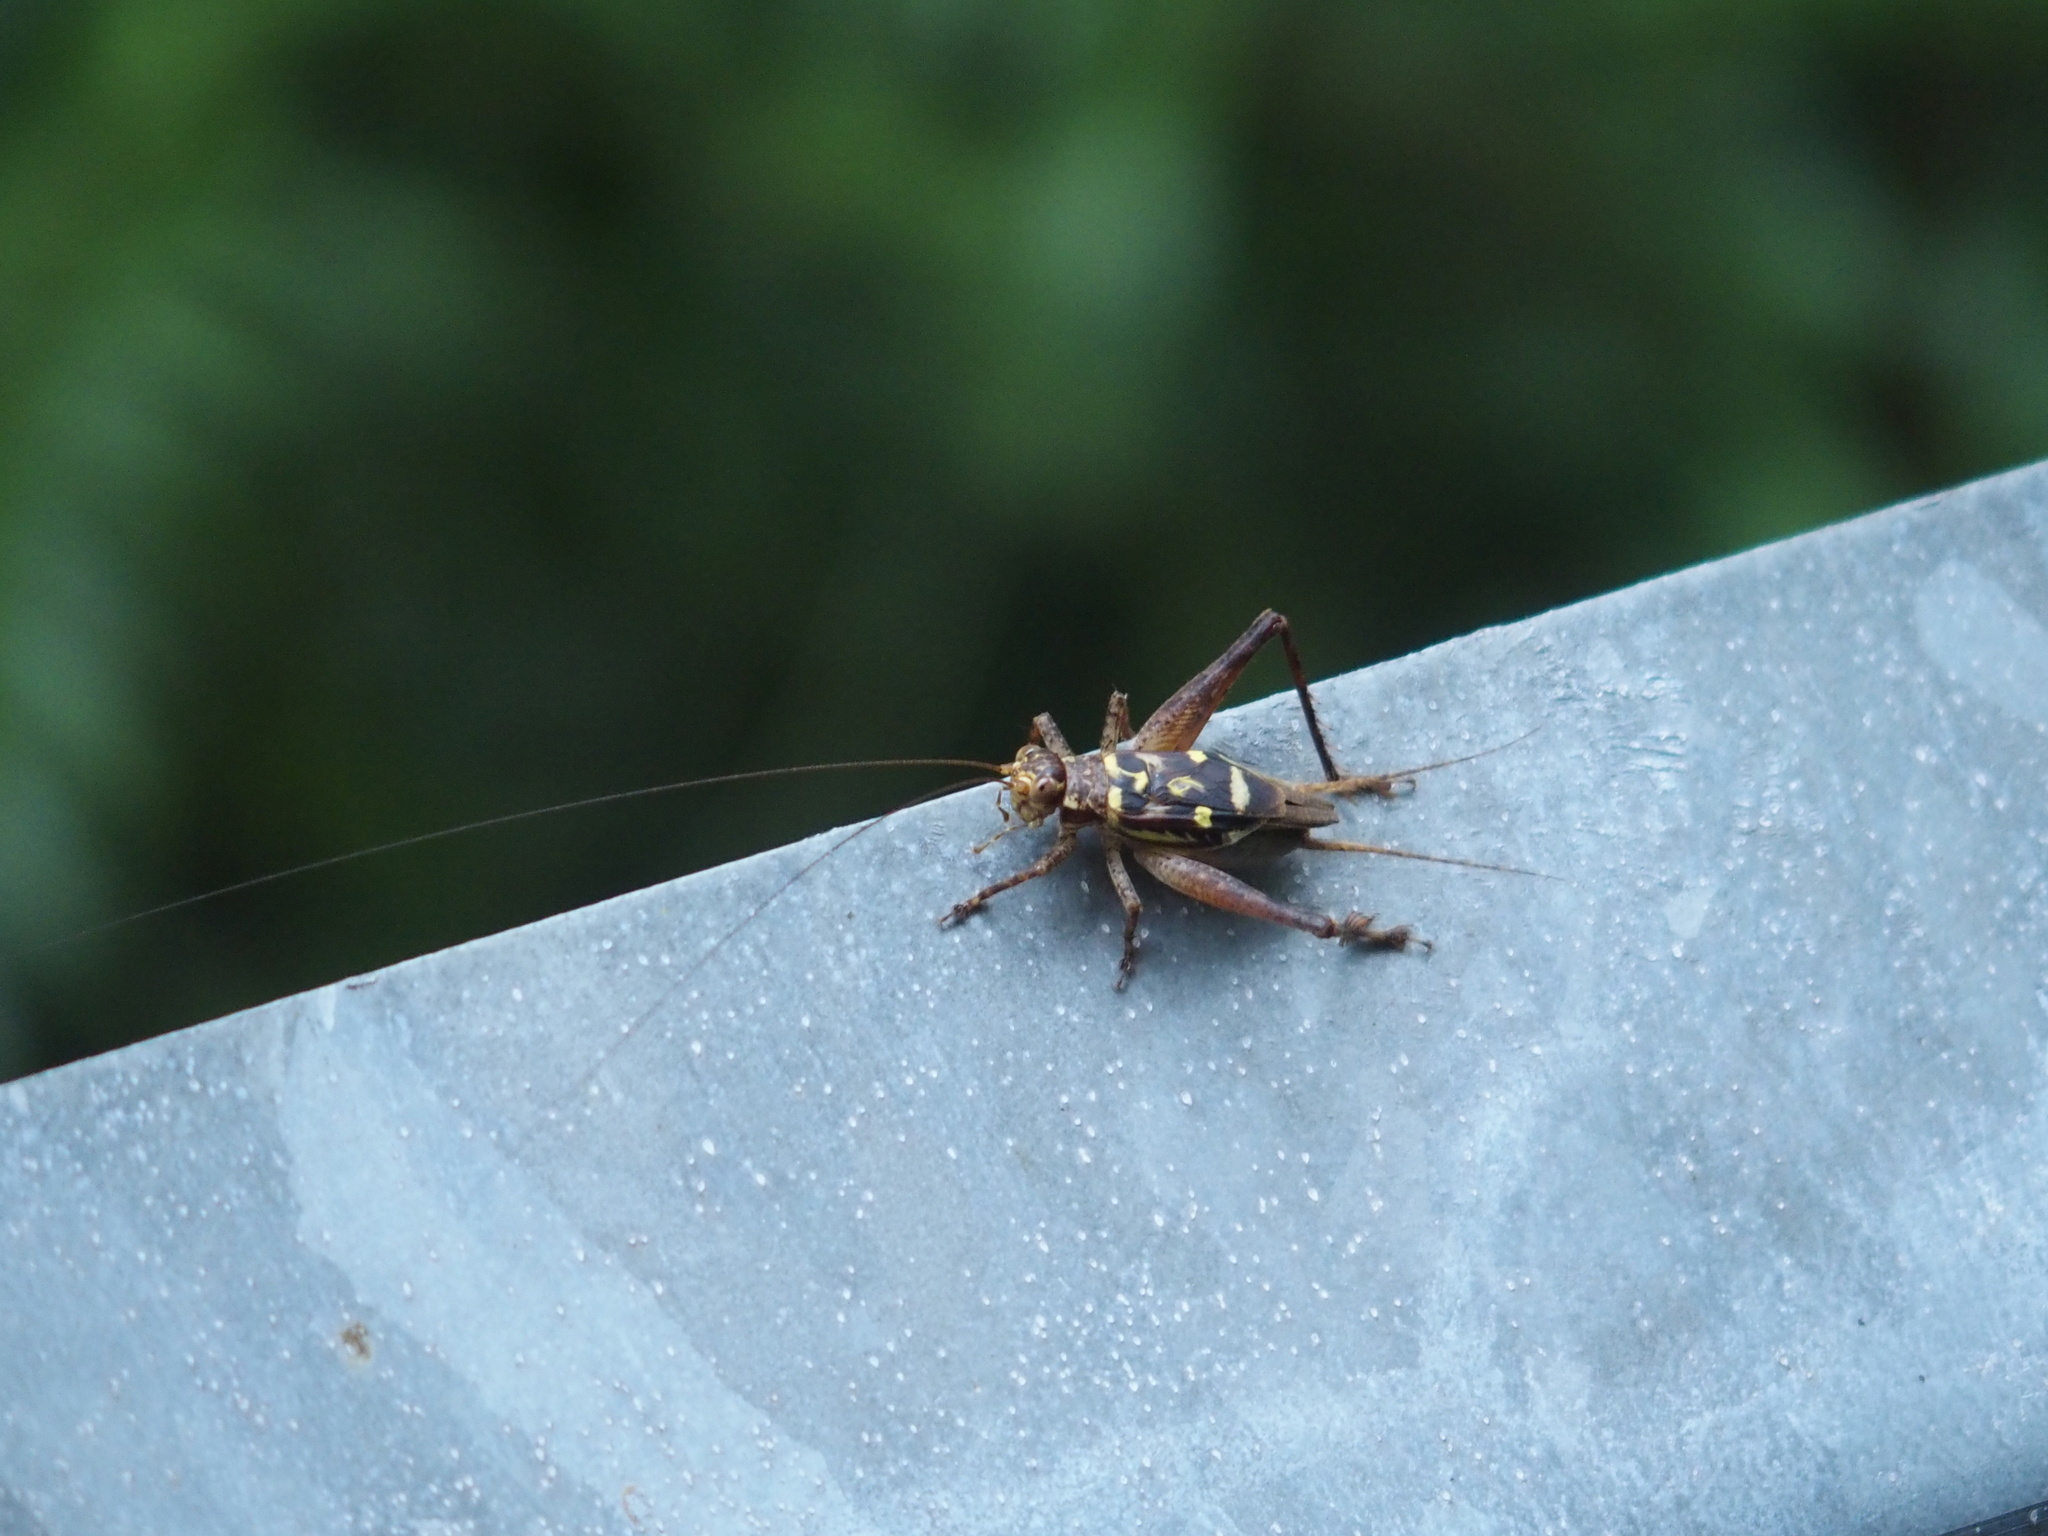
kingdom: Animalia
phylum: Arthropoda
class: Insecta
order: Orthoptera
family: Gryllidae
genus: Cardiodactylus
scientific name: Cardiodactylus guttulus
